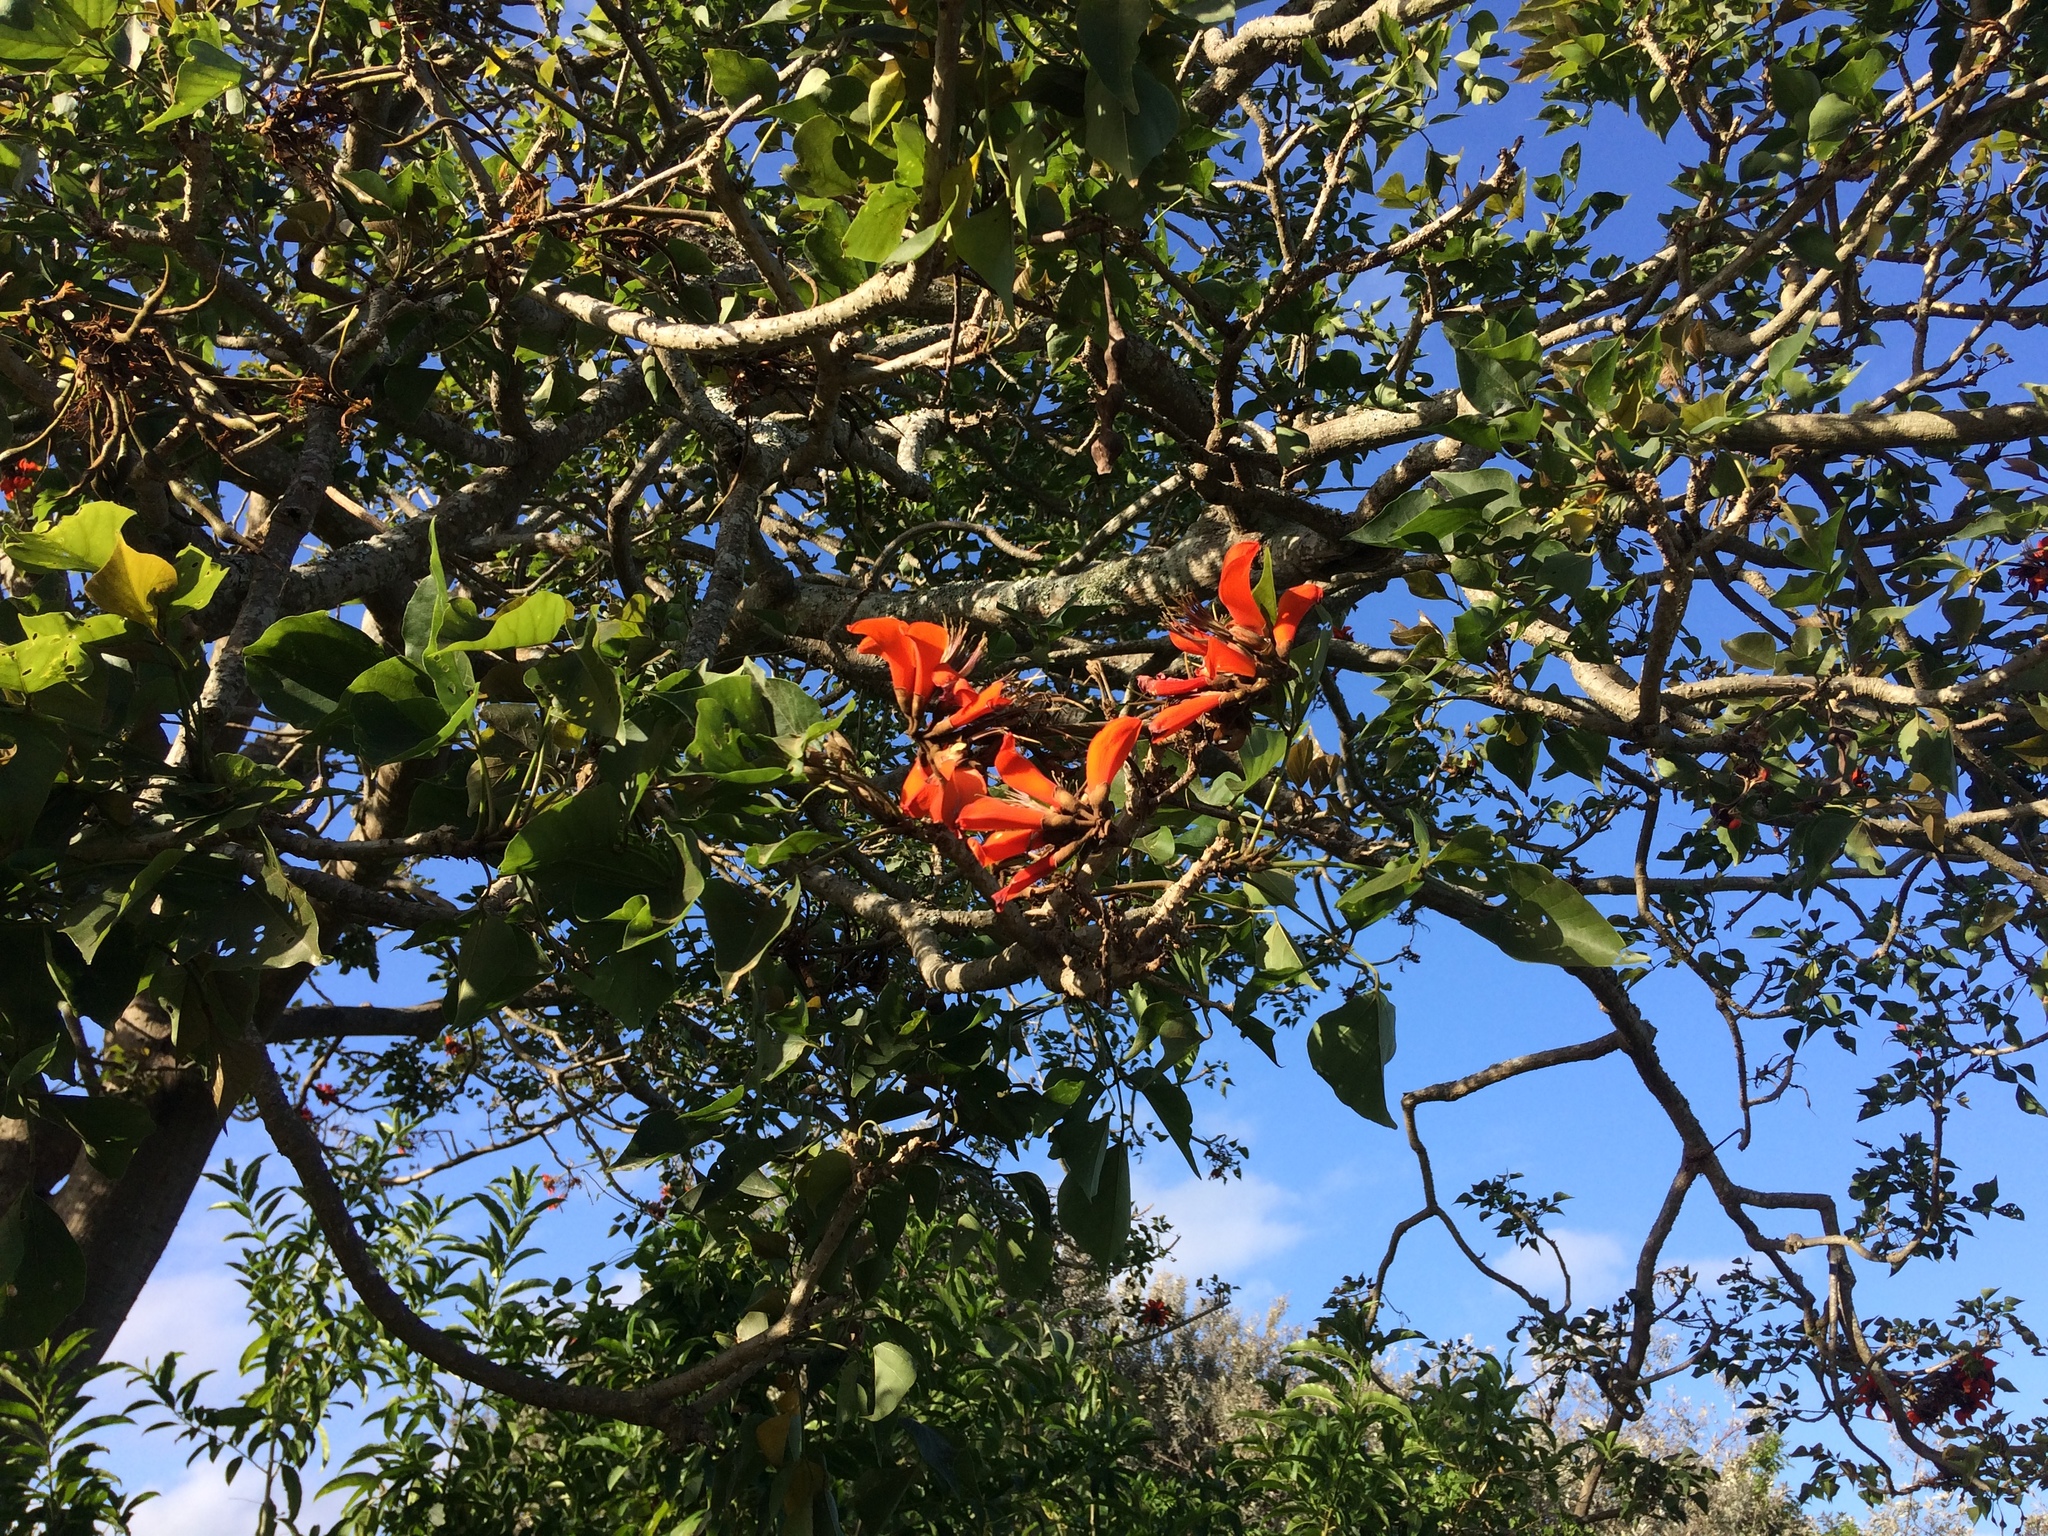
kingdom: Plantae
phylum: Tracheophyta
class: Magnoliopsida
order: Fabales
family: Fabaceae
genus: Erythrina
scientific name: Erythrina caffra
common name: Coast coral tree
